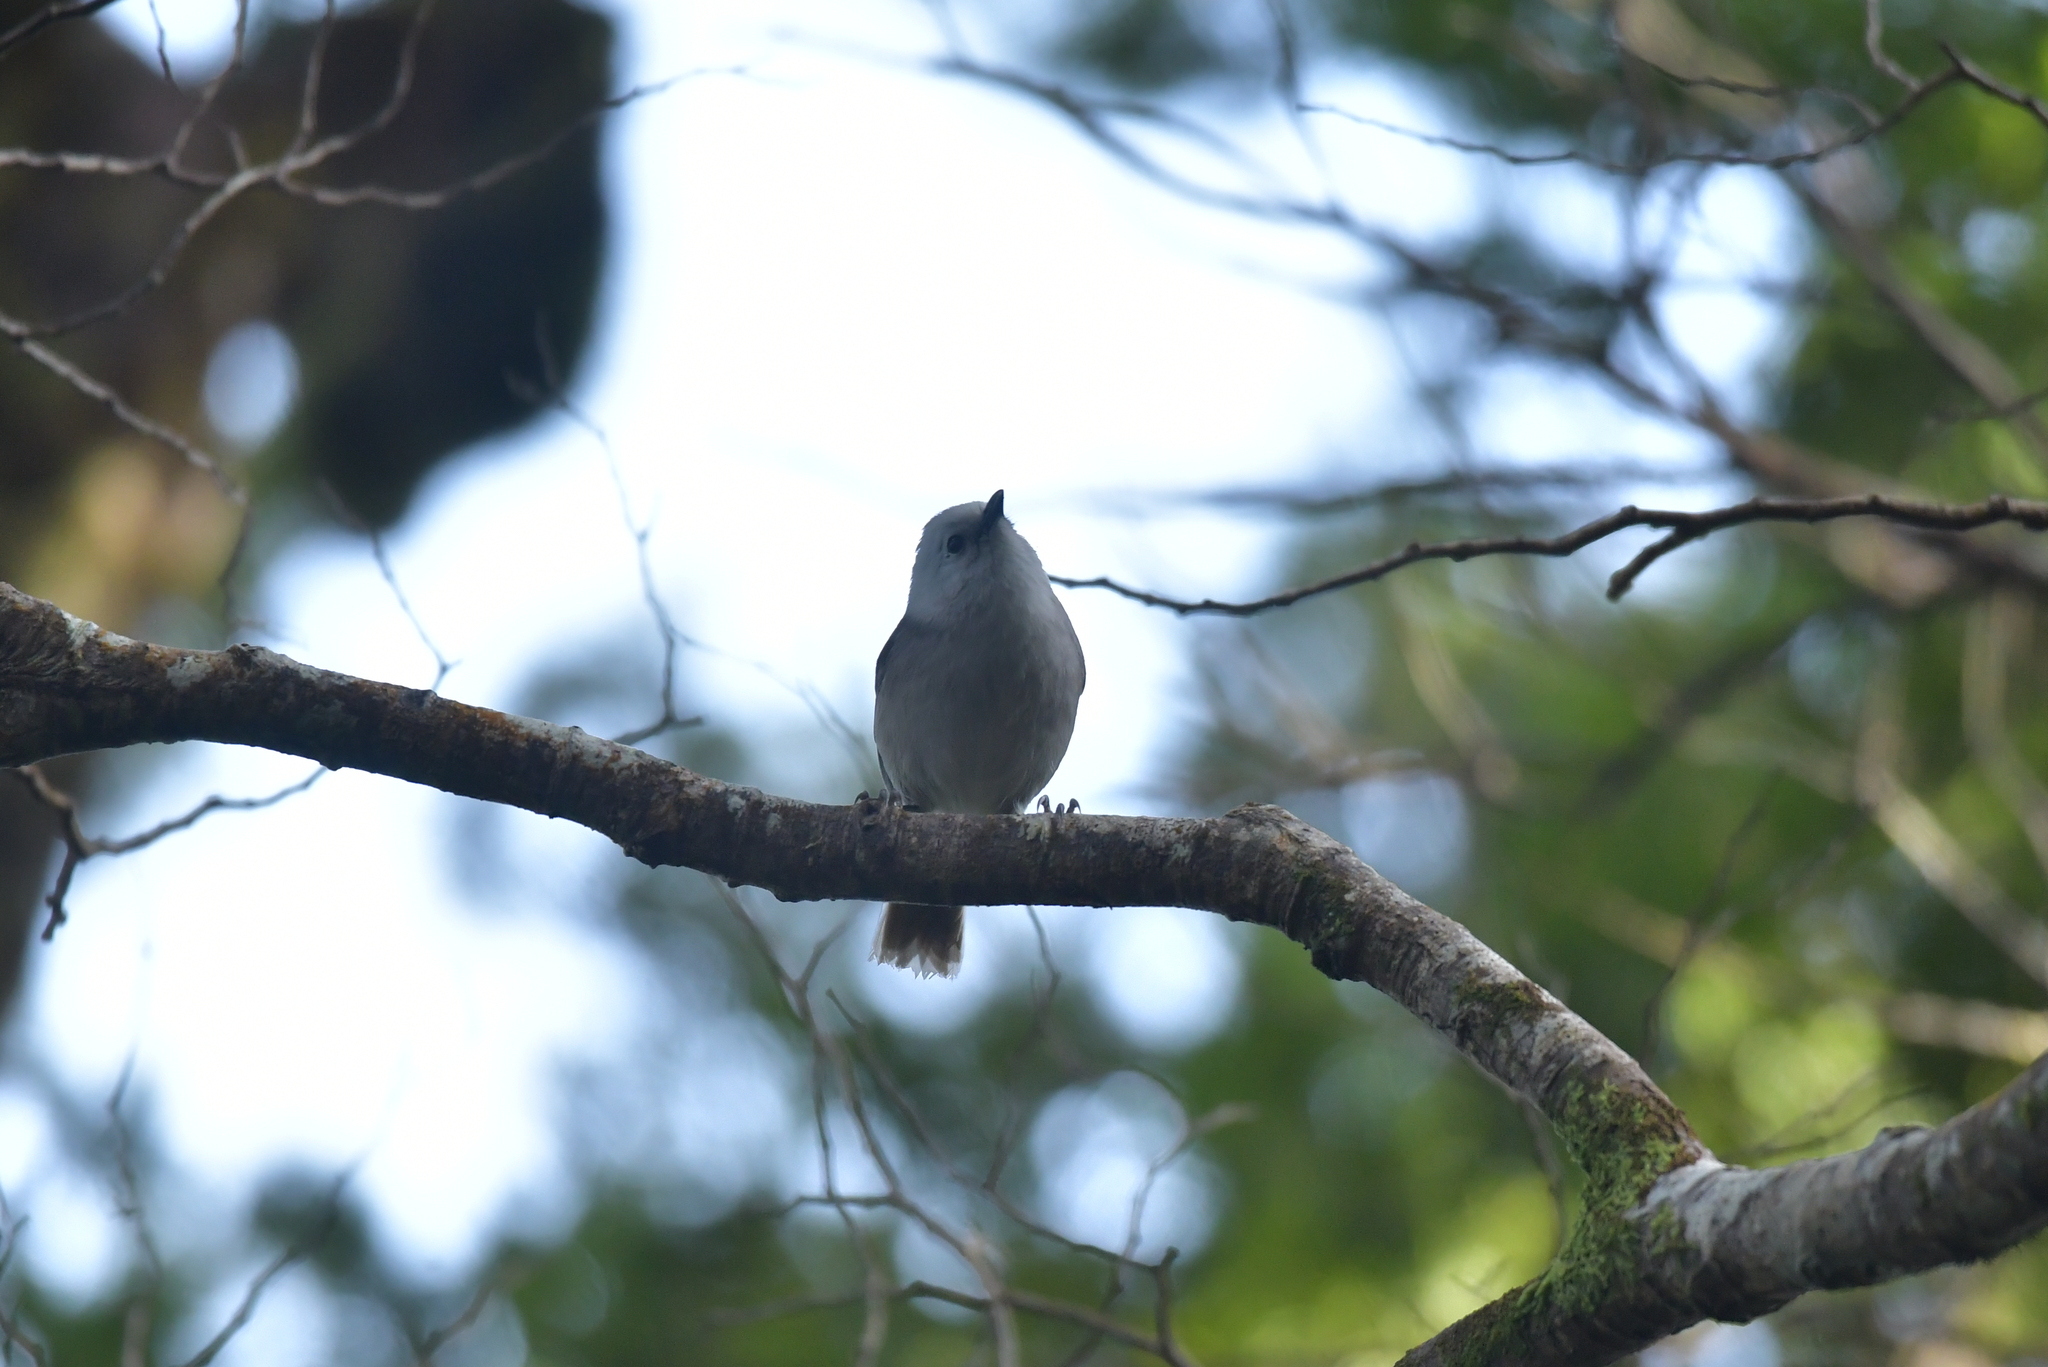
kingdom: Animalia
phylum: Chordata
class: Aves
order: Passeriformes
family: Acanthizidae
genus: Mohoua
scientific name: Mohoua albicilla
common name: Whitehead
